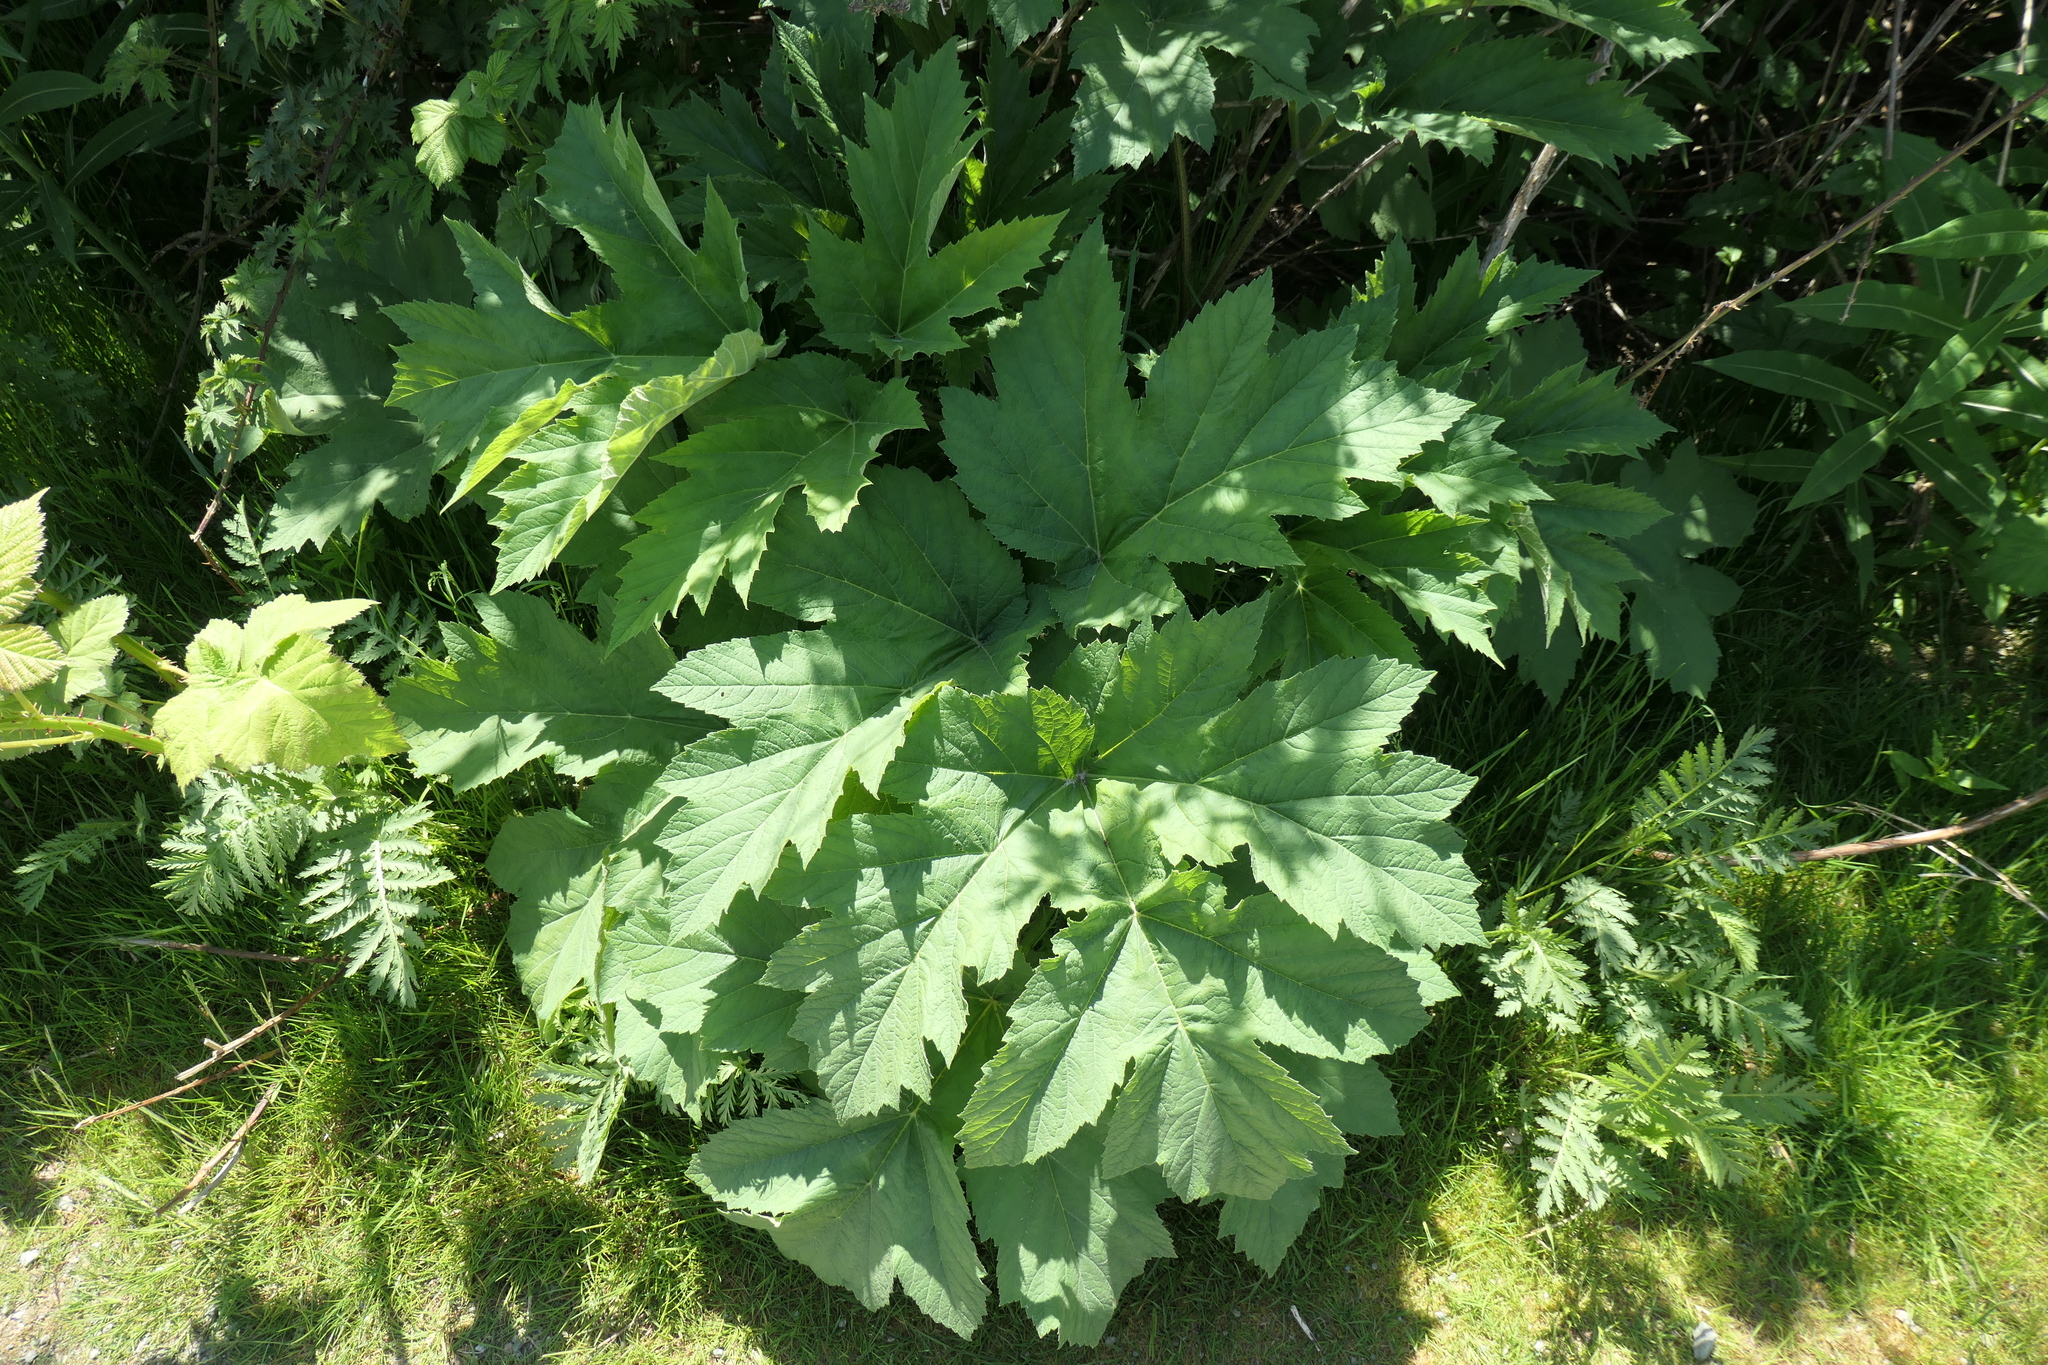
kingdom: Plantae
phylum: Tracheophyta
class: Magnoliopsida
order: Apiales
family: Apiaceae
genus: Heracleum
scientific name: Heracleum maximum
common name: American cow parsnip
